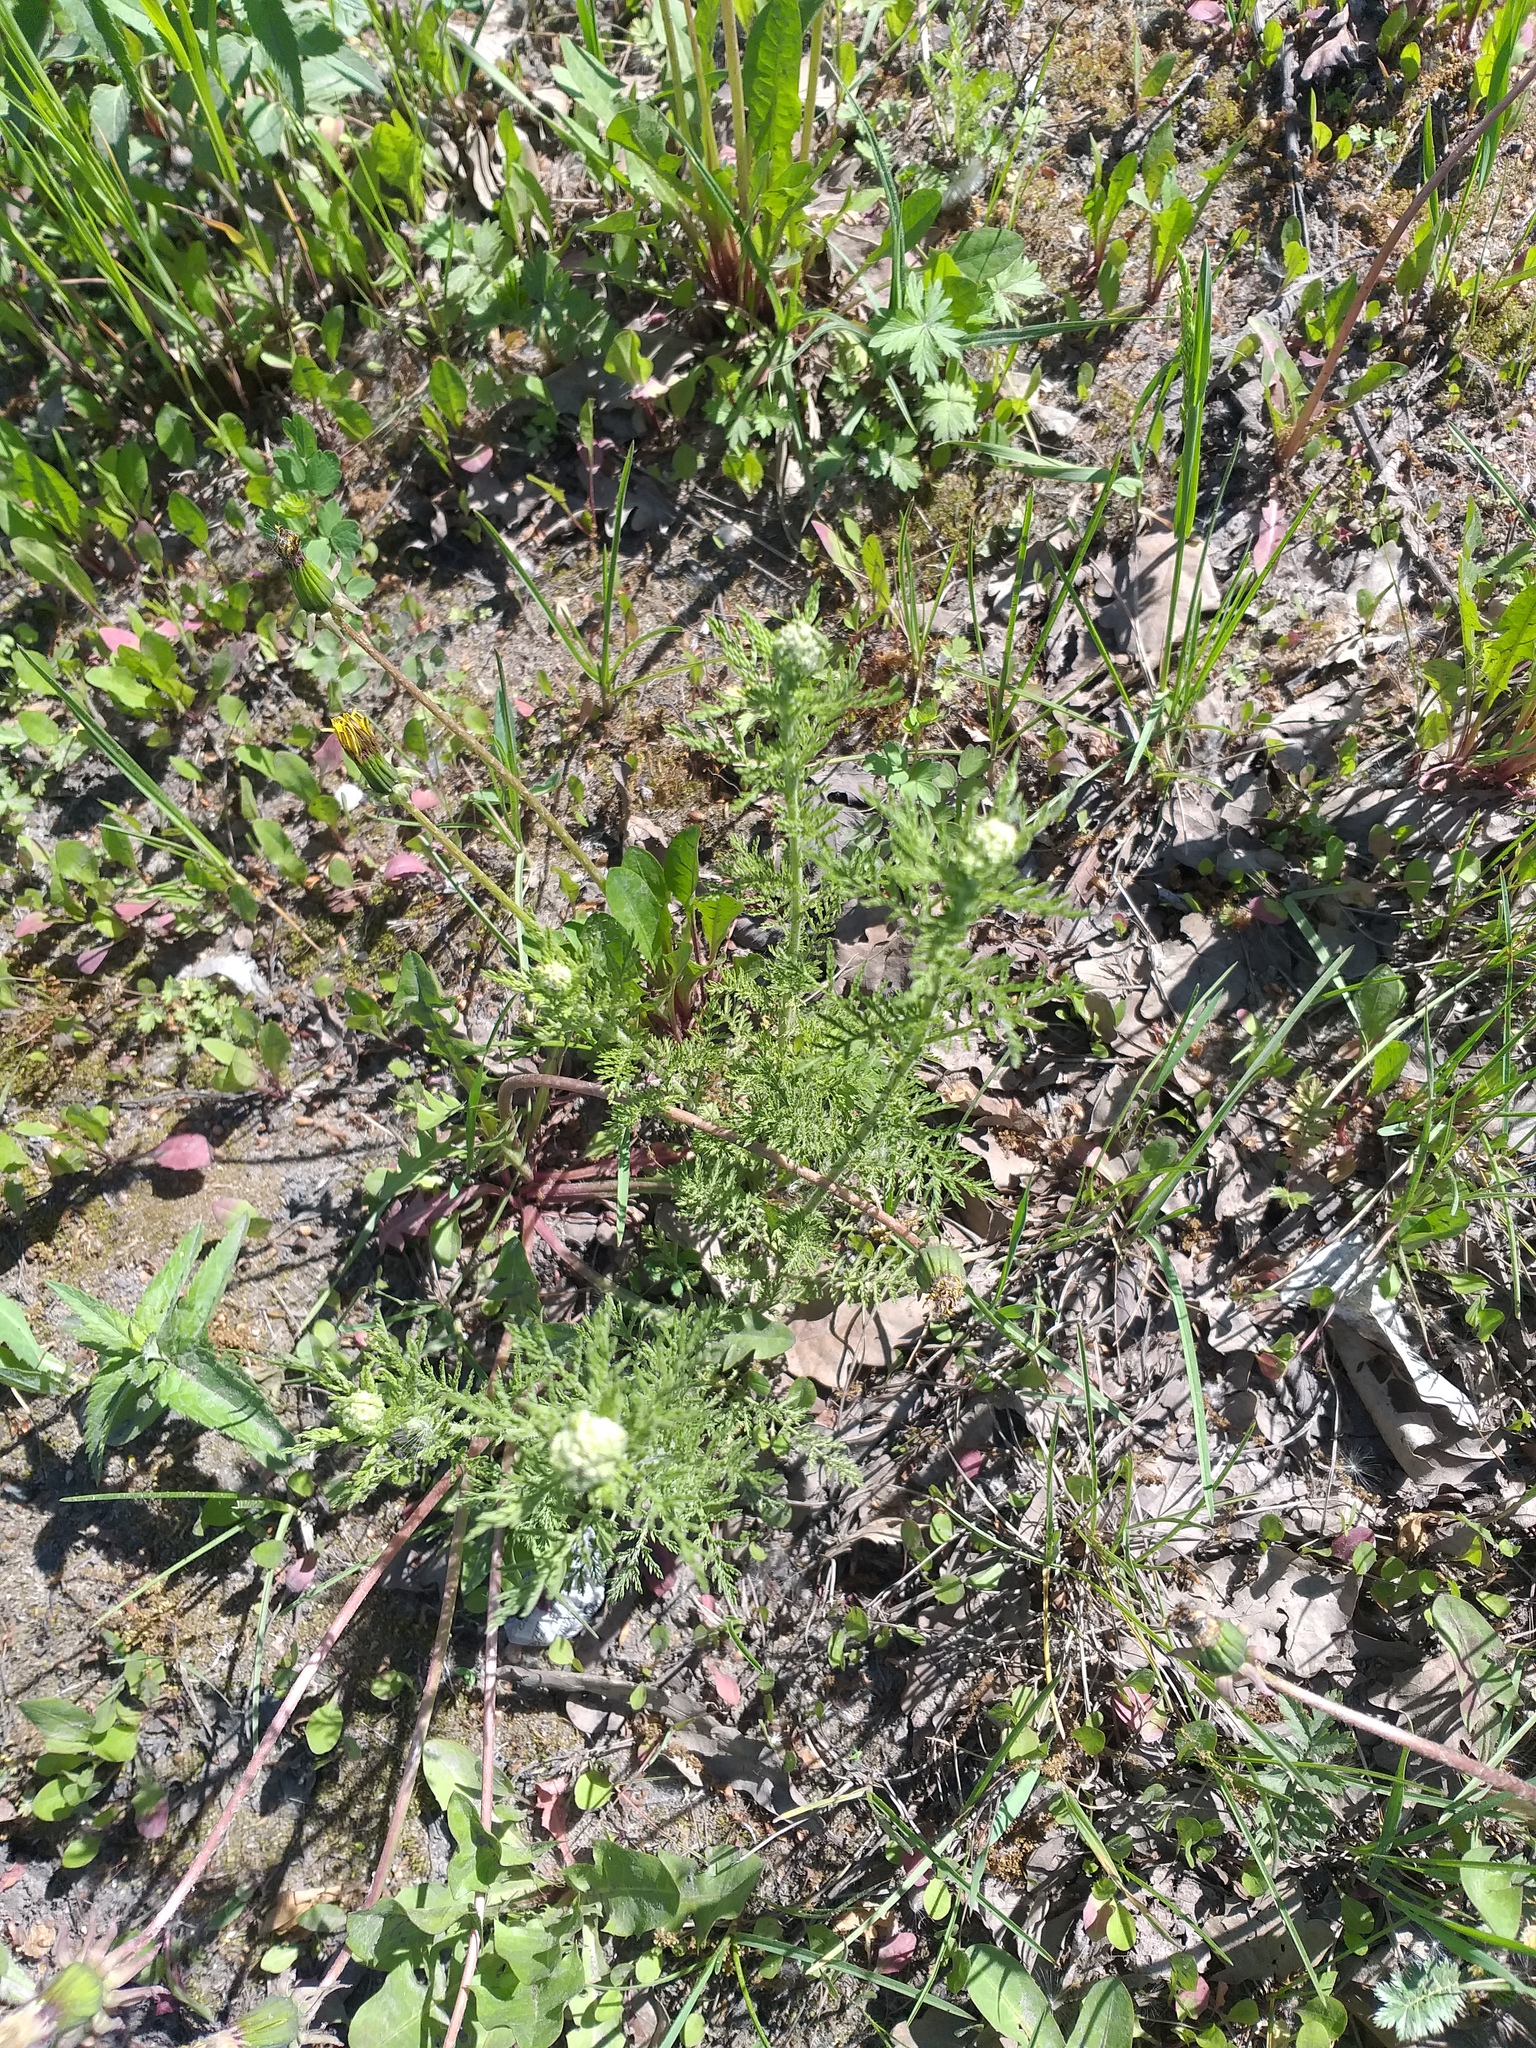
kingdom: Plantae
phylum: Tracheophyta
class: Magnoliopsida
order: Asterales
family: Asteraceae
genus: Achillea
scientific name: Achillea nobilis
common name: Noble yarrow
